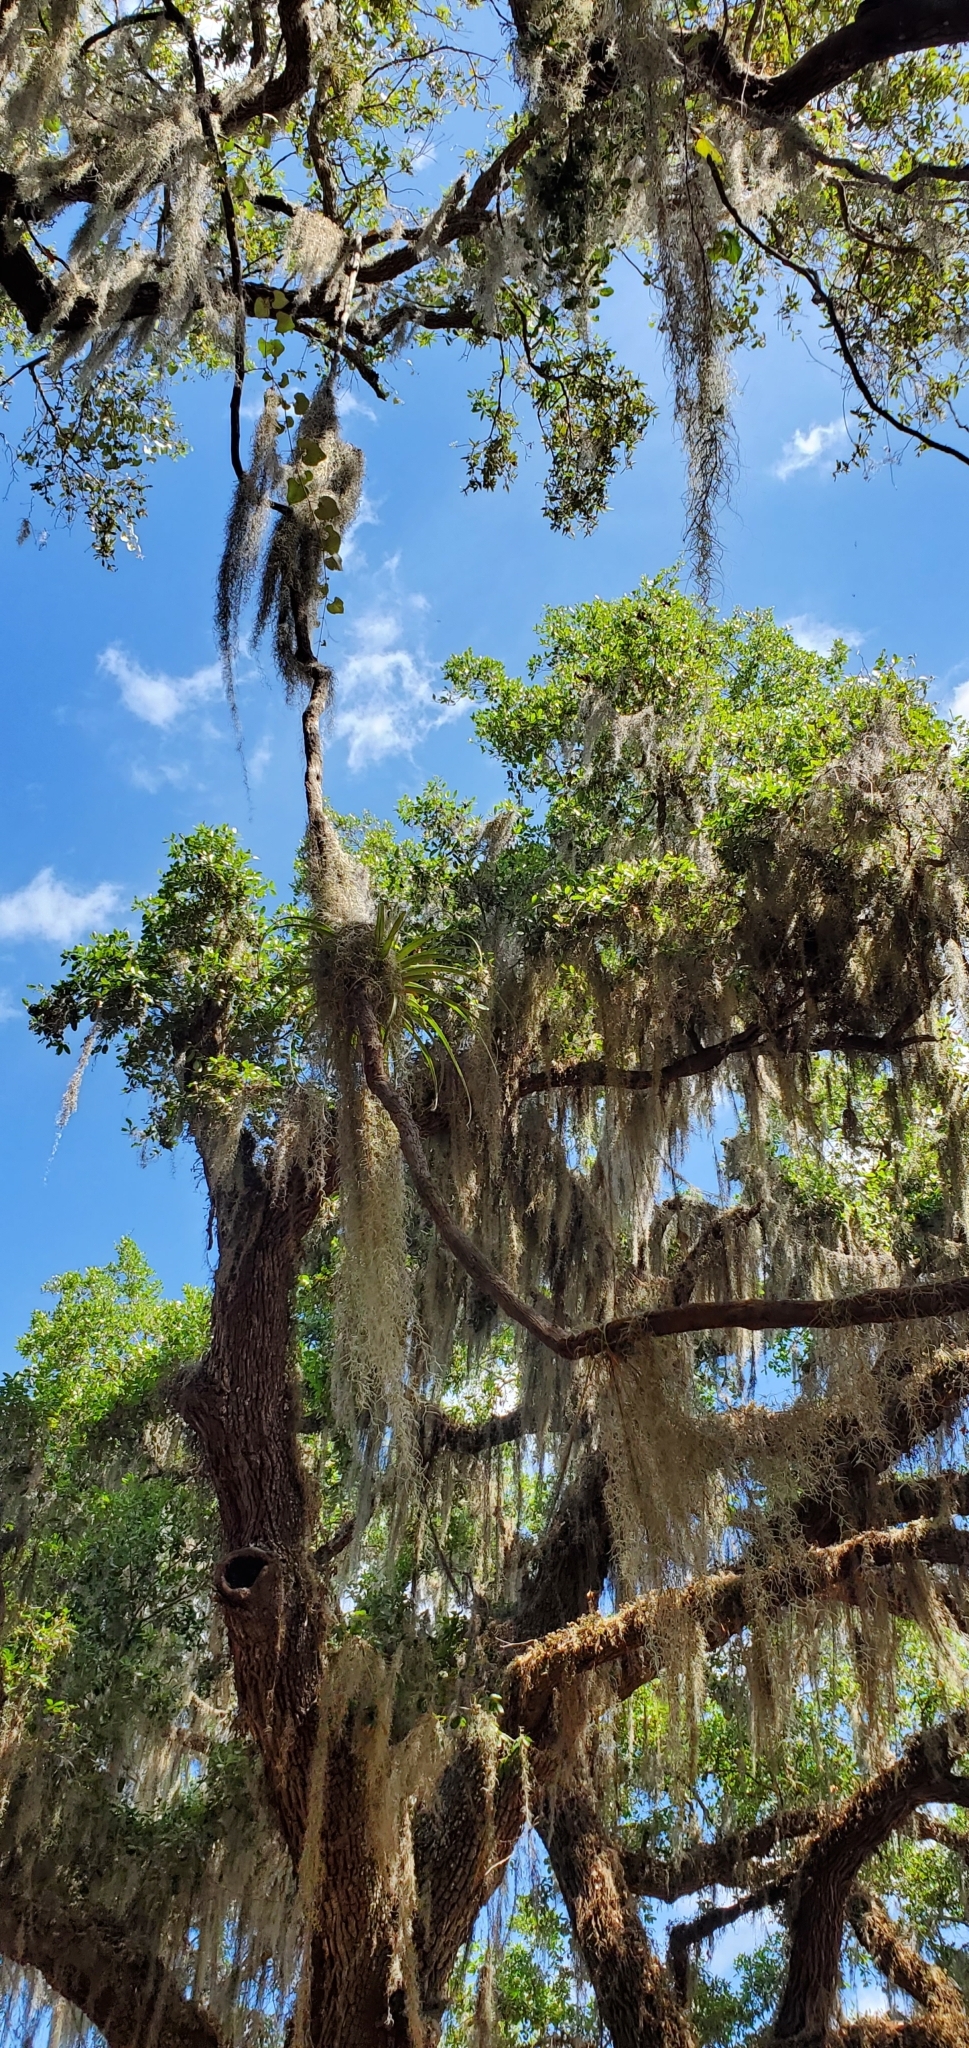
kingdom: Plantae
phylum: Tracheophyta
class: Liliopsida
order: Poales
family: Bromeliaceae
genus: Tillandsia
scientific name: Tillandsia utriculata
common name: Wild pine
